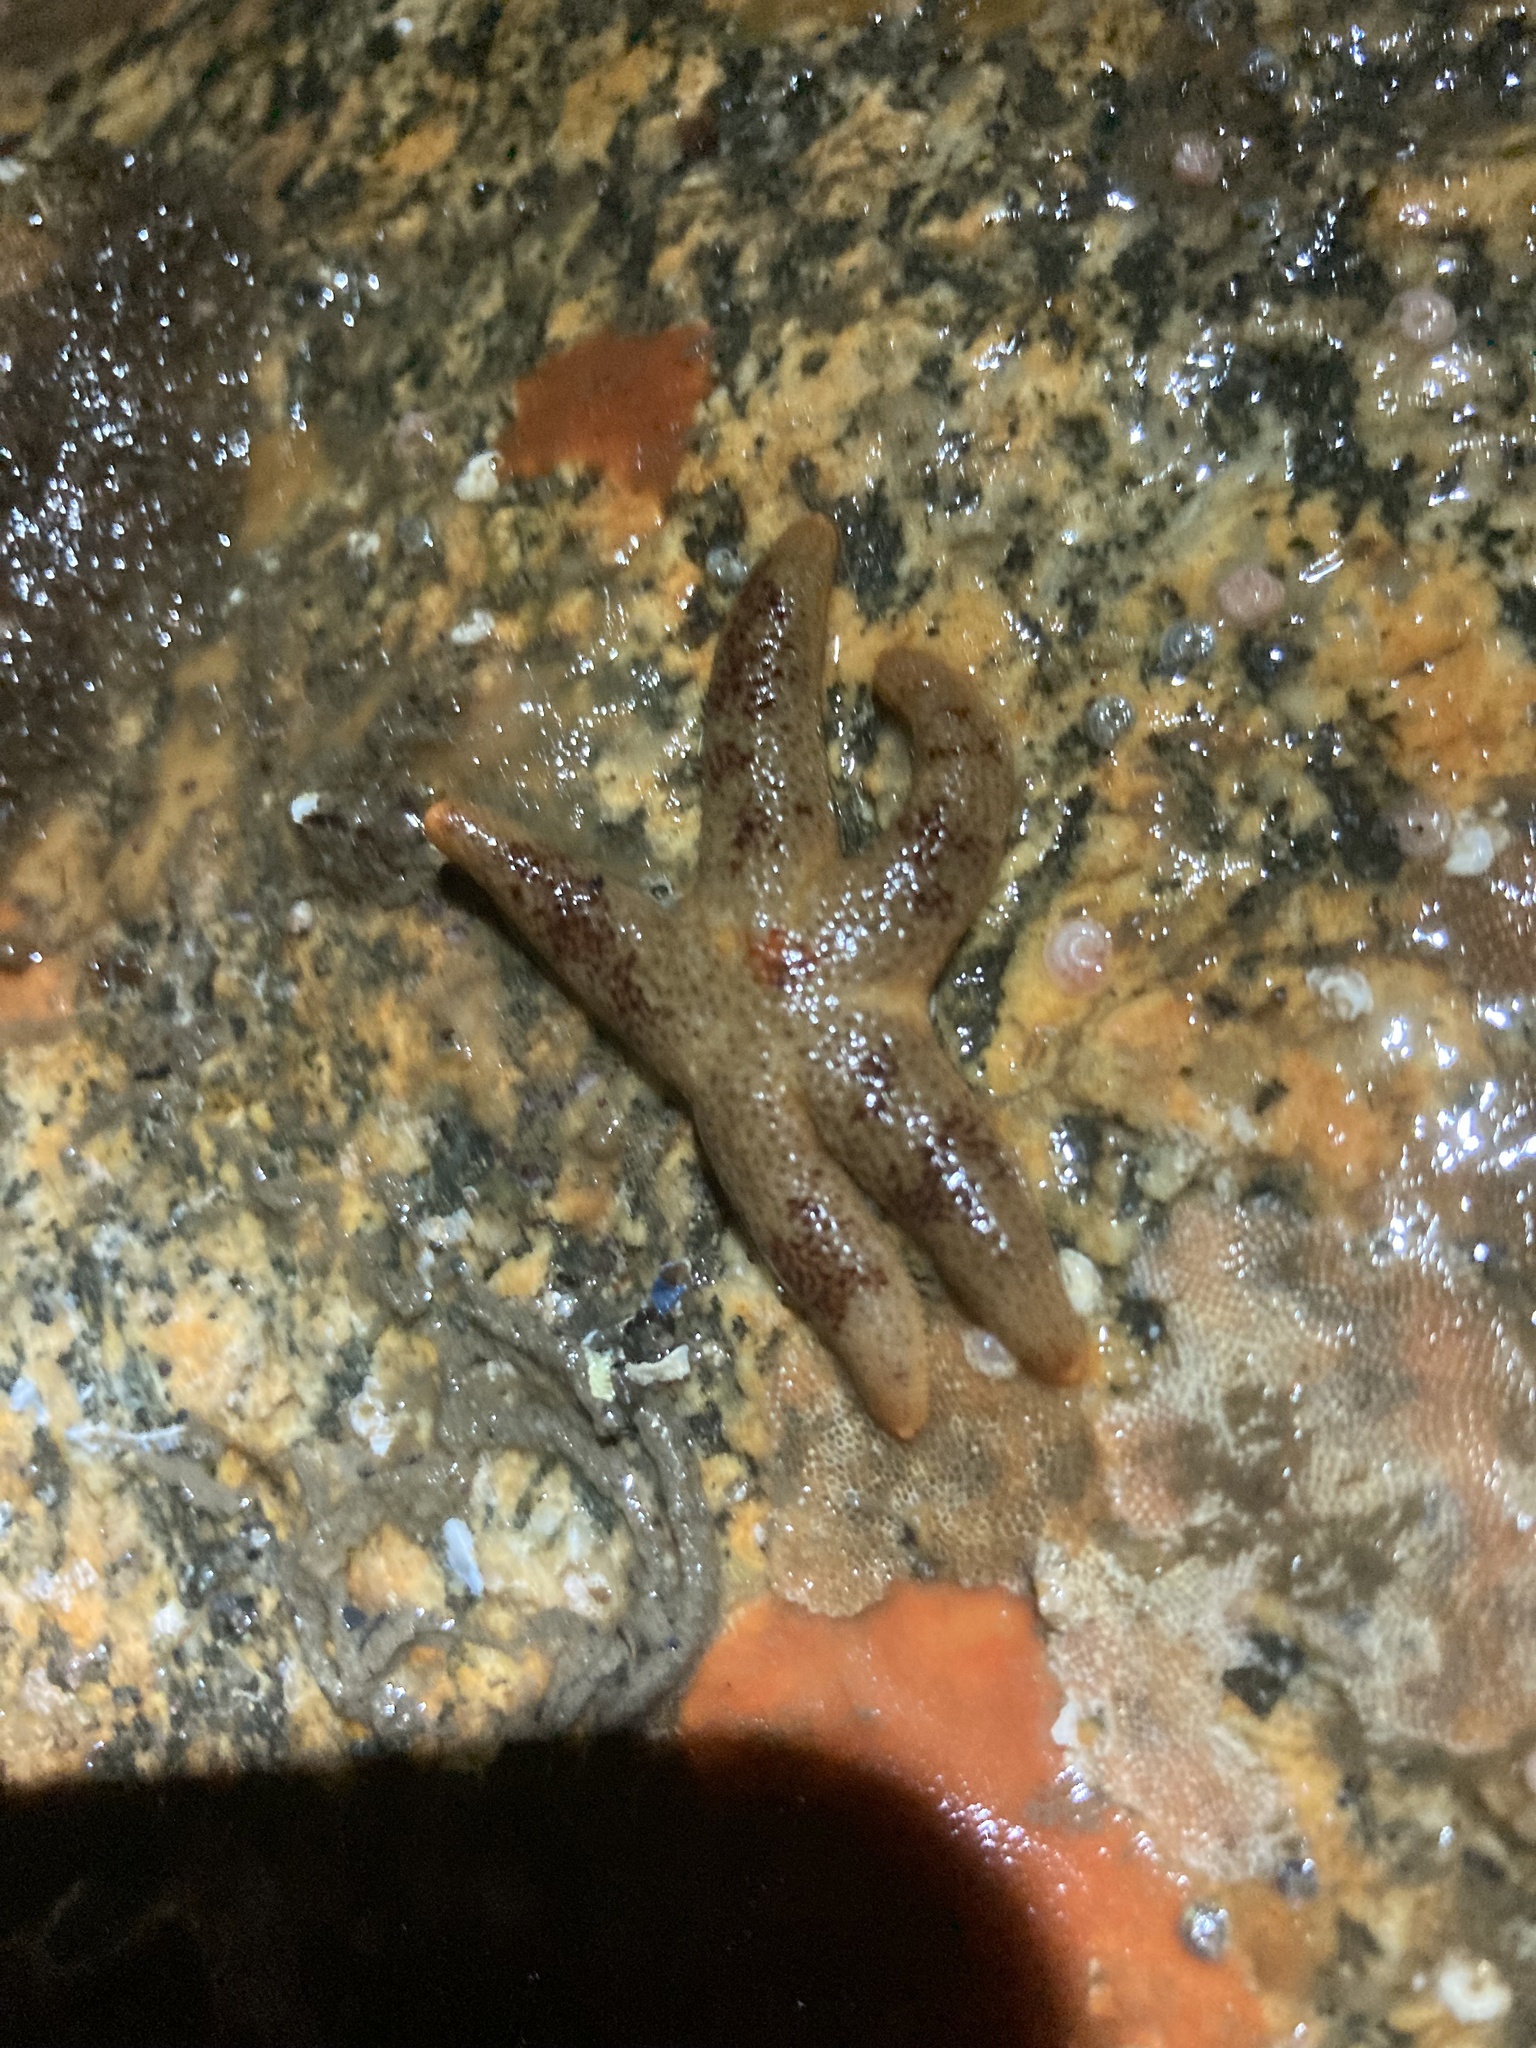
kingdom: Animalia
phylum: Echinodermata
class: Asteroidea
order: Spinulosida
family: Echinasteridae
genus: Henricia
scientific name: Henricia pumila
